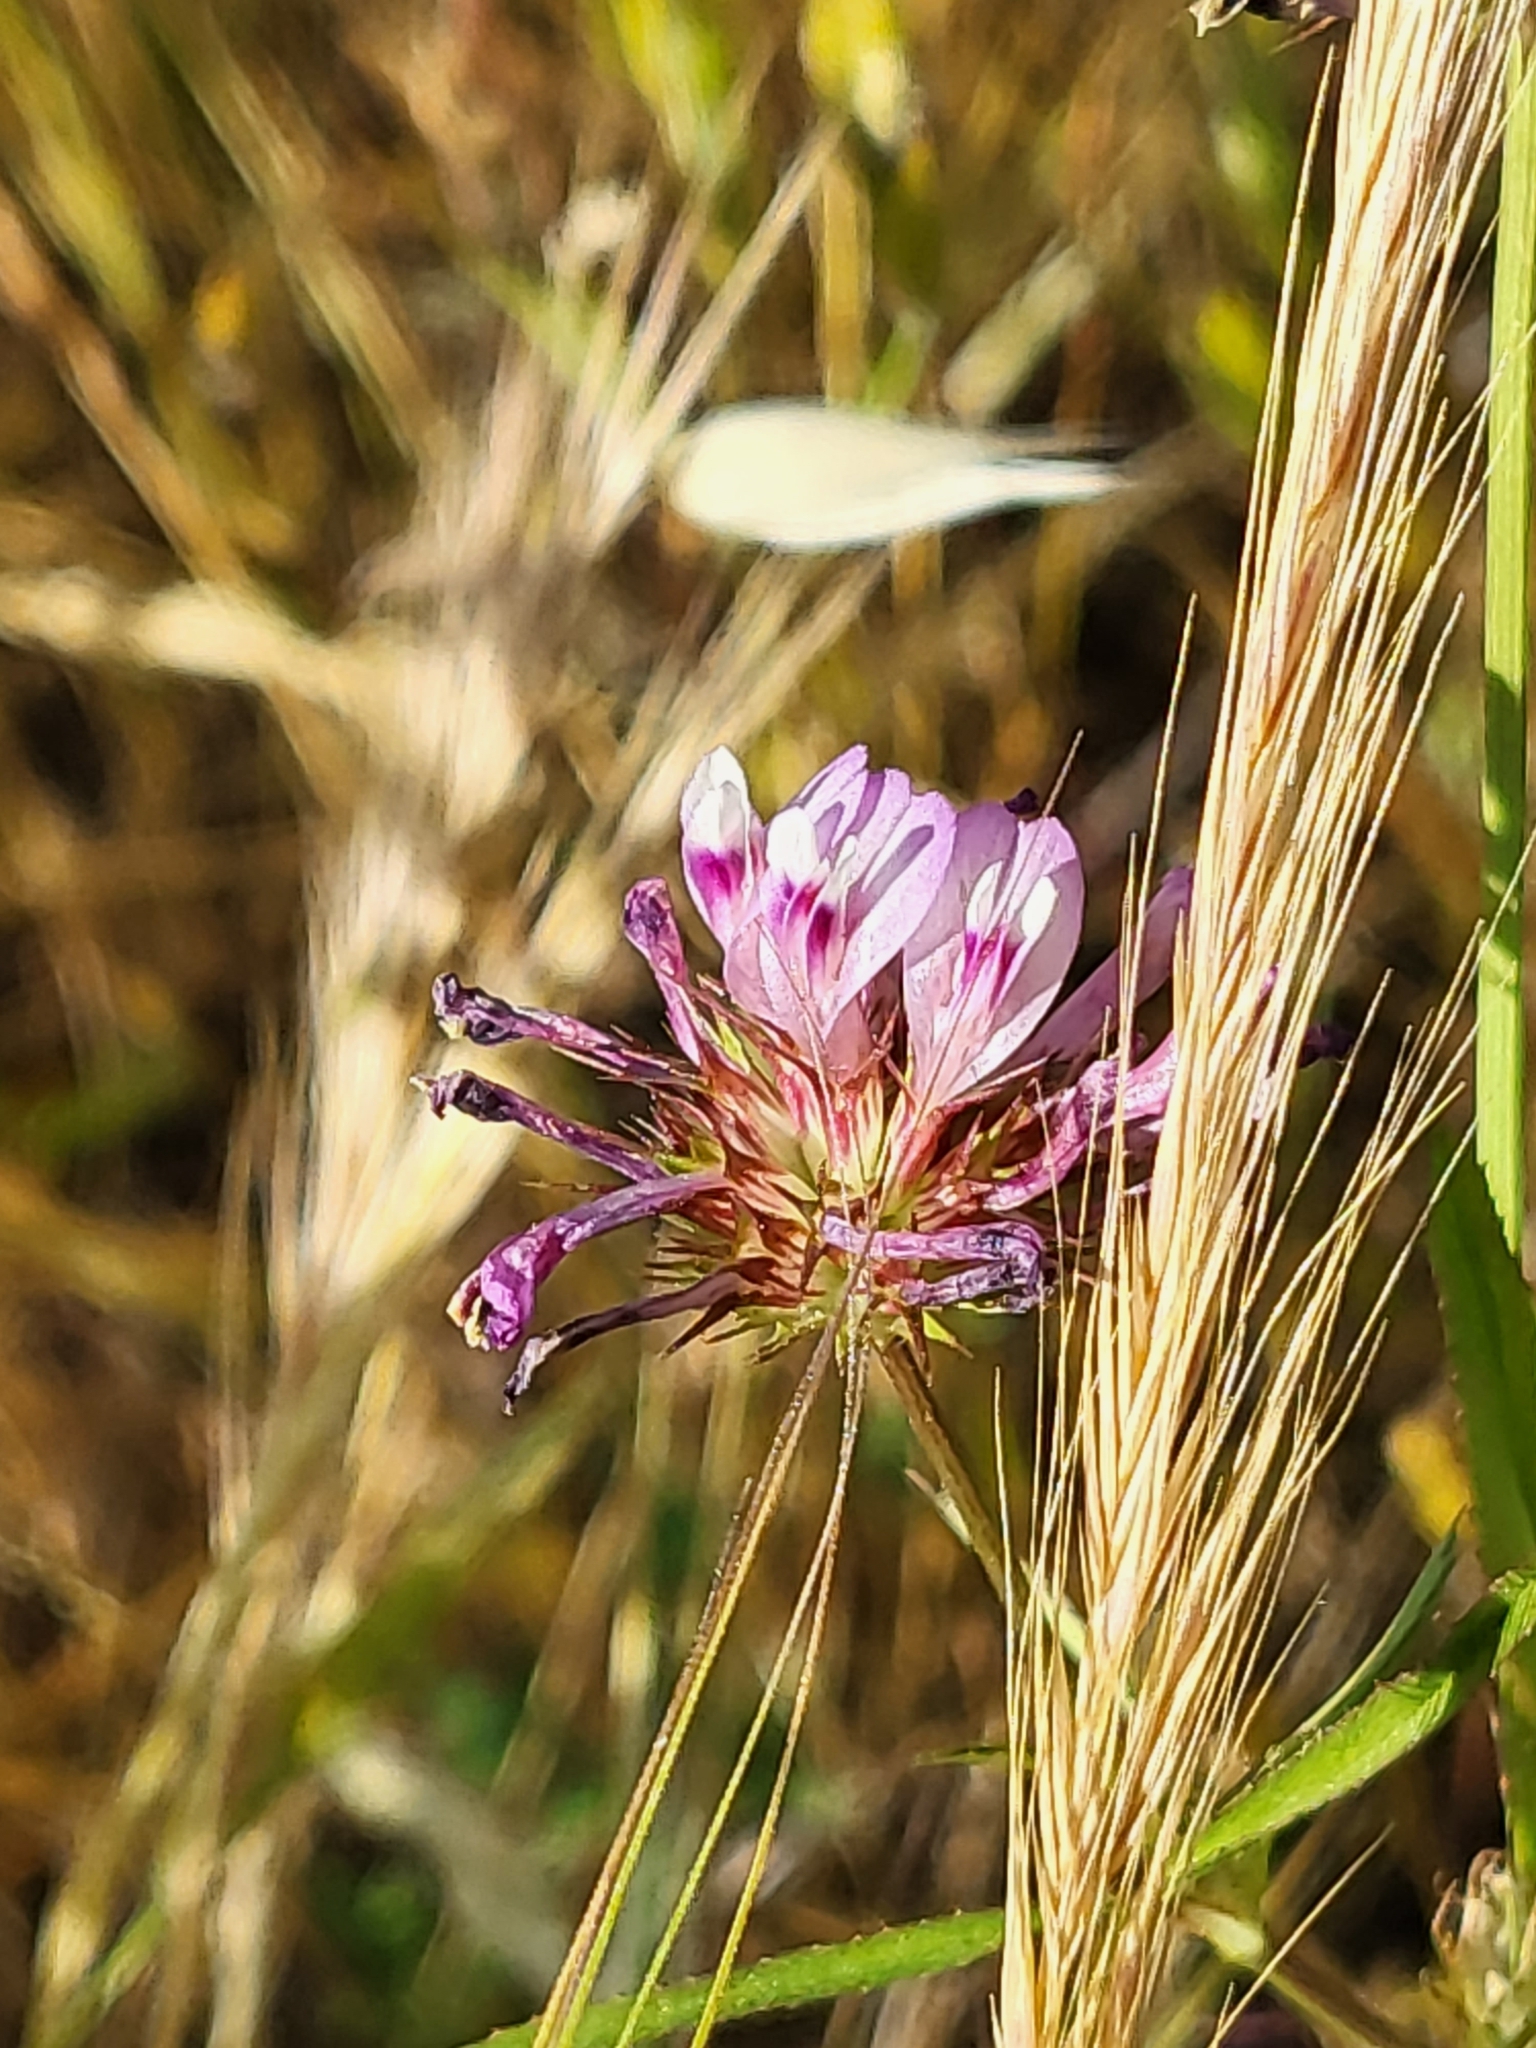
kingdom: Plantae
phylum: Tracheophyta
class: Magnoliopsida
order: Fabales
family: Fabaceae
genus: Trifolium
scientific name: Trifolium willdenovii
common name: Tomcat clover
